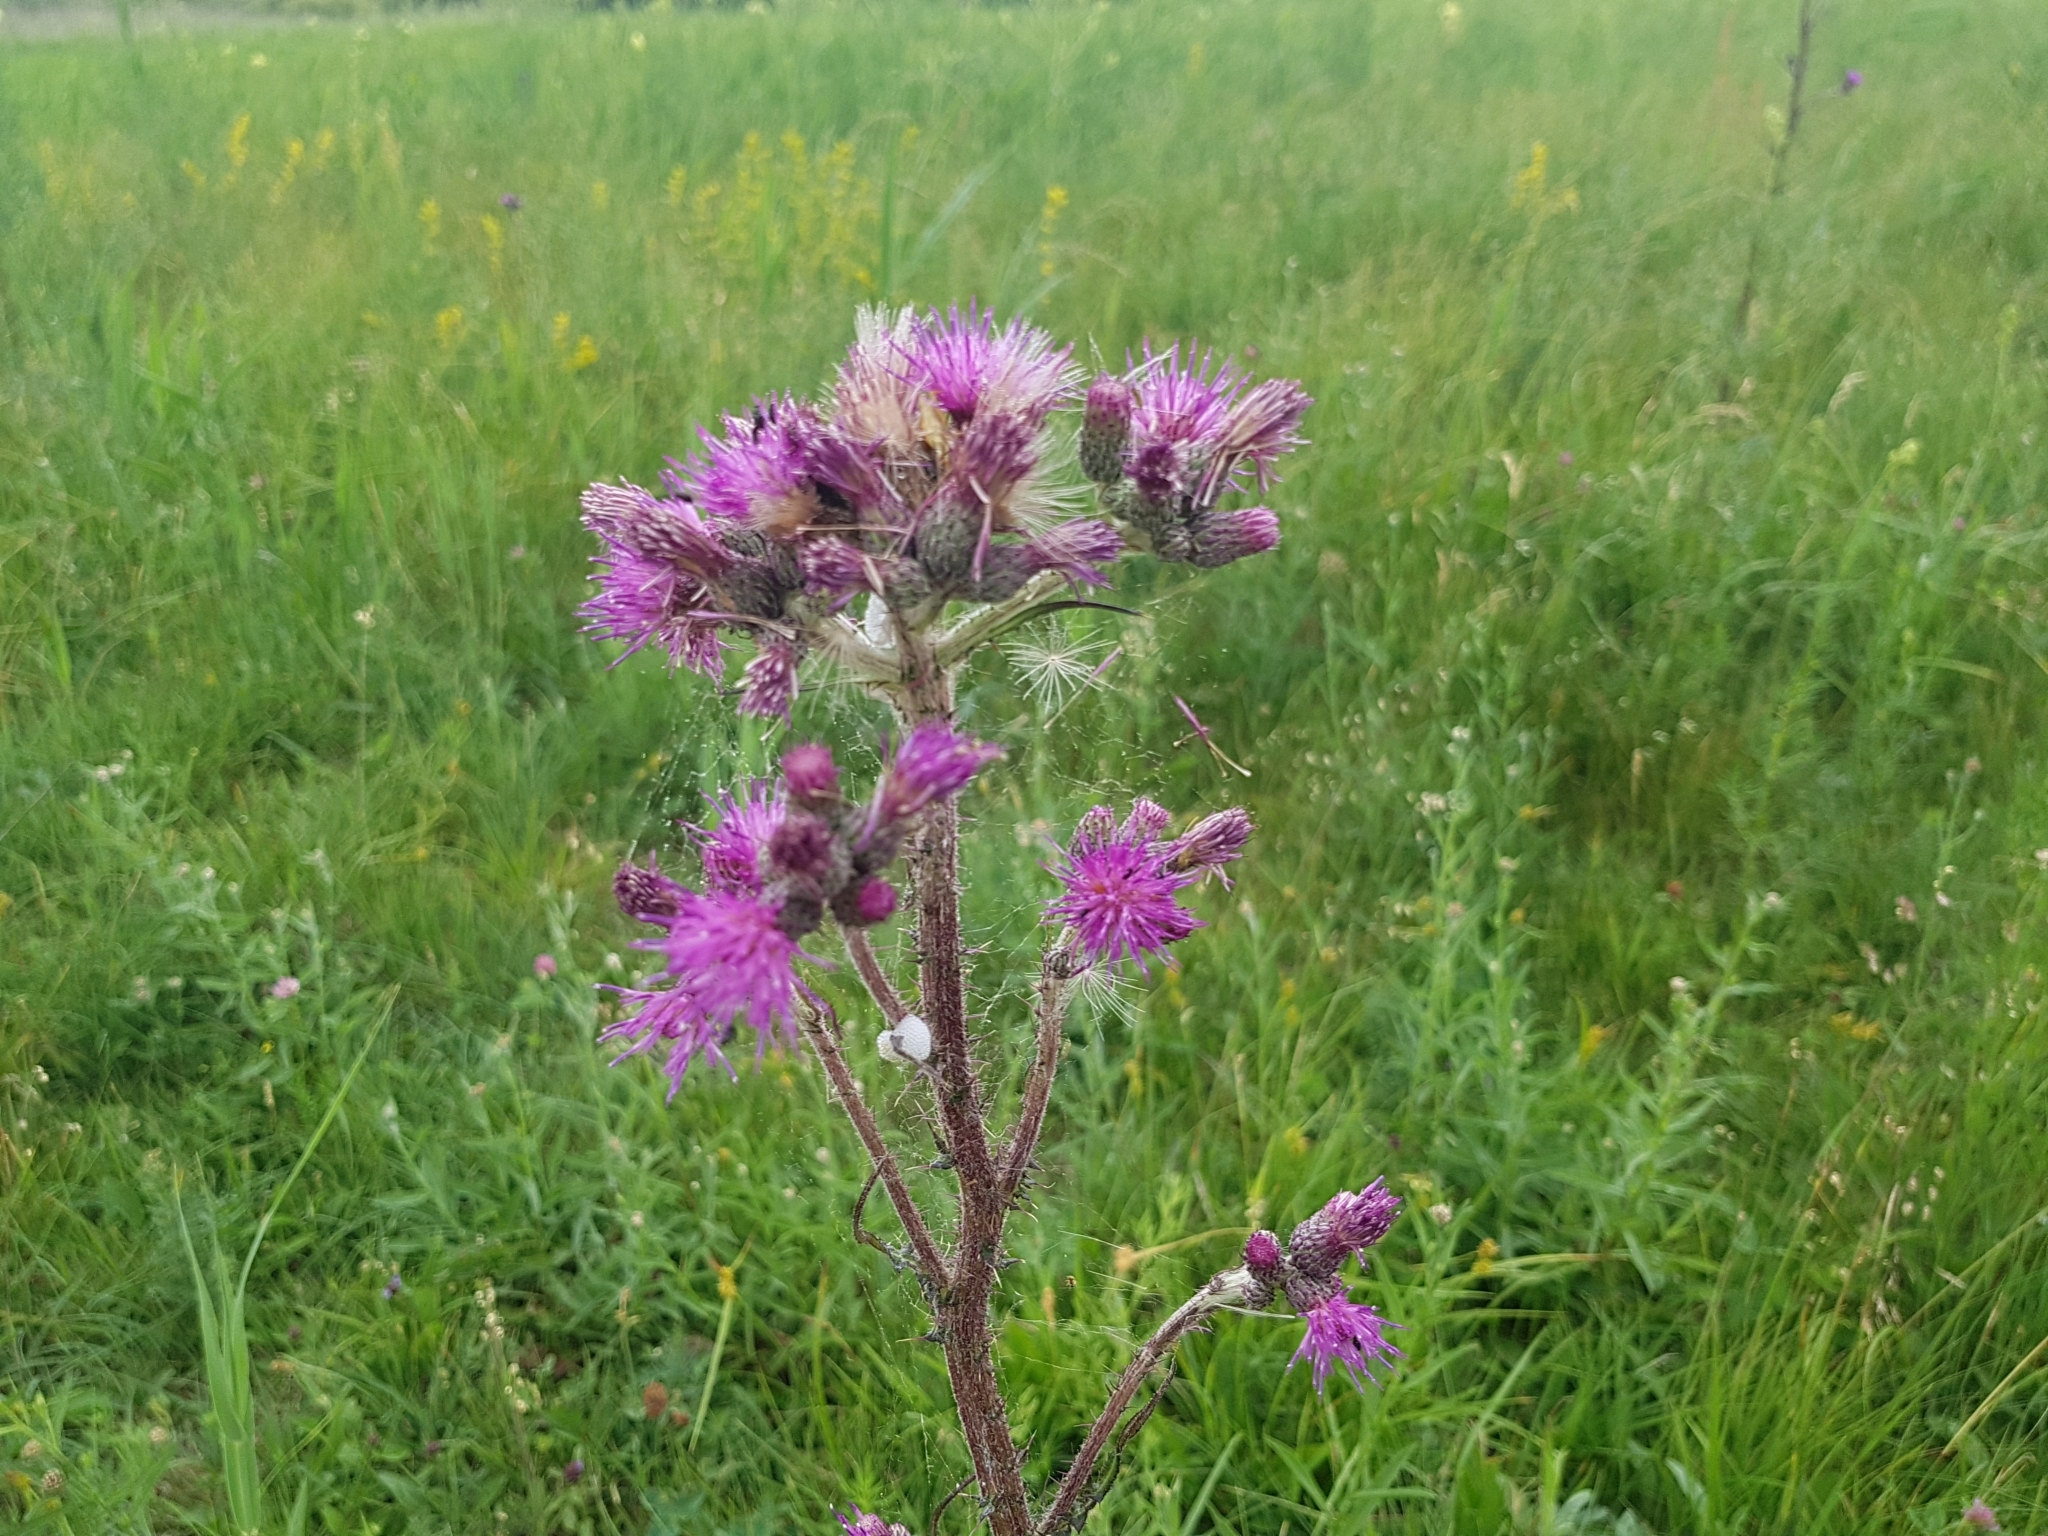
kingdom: Plantae
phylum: Tracheophyta
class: Magnoliopsida
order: Asterales
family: Asteraceae
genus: Cirsium
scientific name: Cirsium palustre
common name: Marsh thistle
